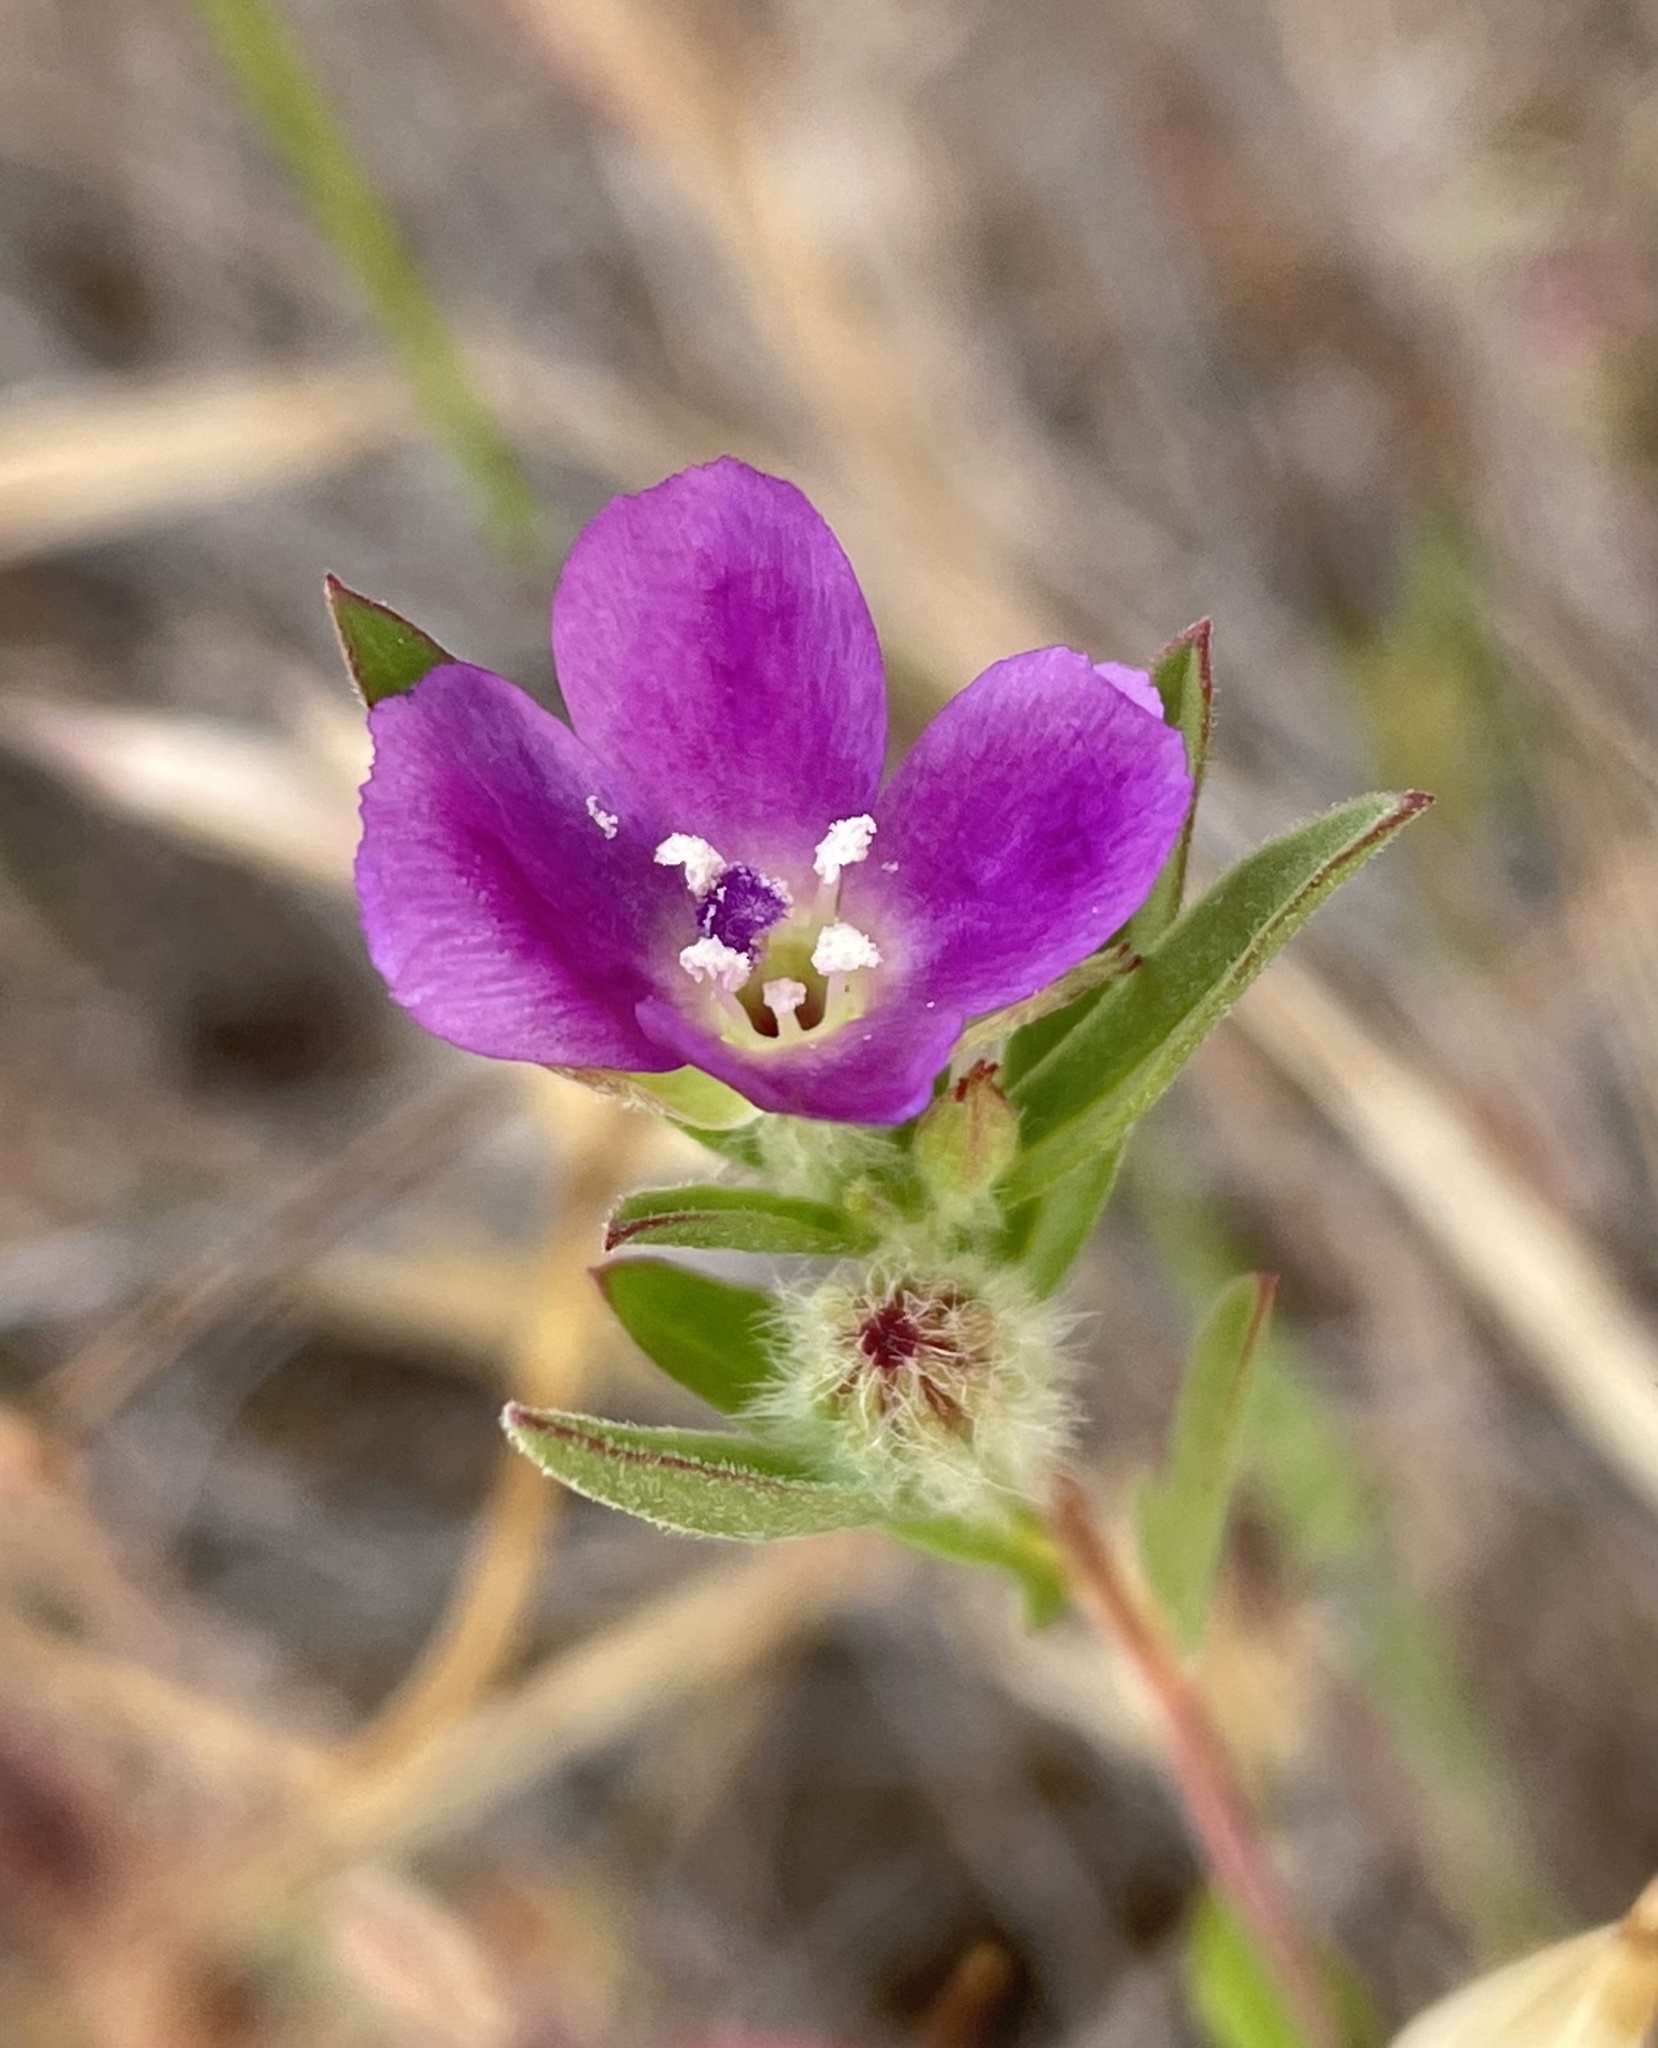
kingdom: Plantae
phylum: Tracheophyta
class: Magnoliopsida
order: Myrtales
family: Onagraceae
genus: Clarkia
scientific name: Clarkia purpurea
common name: Purple clarkia
